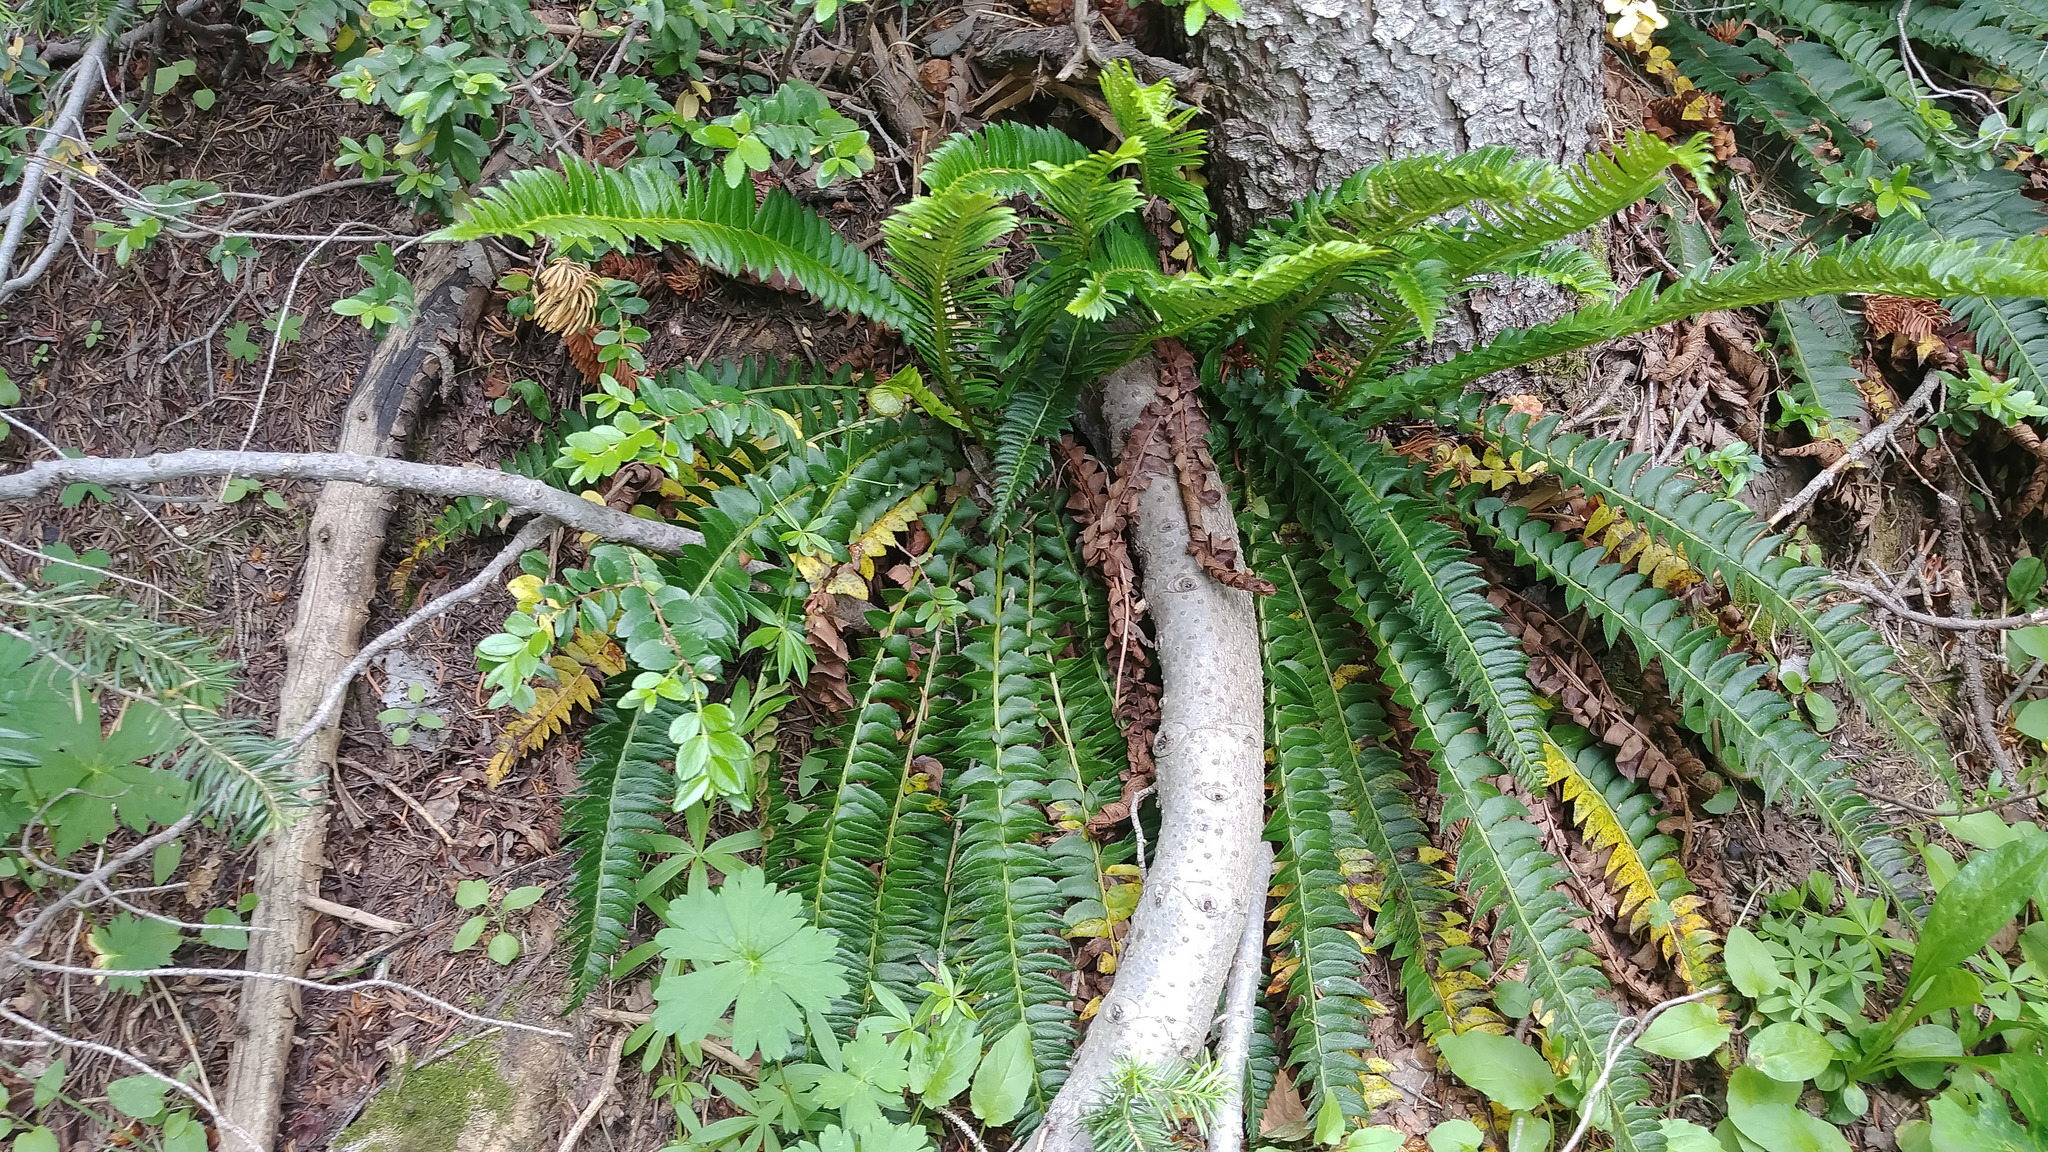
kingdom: Plantae
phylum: Tracheophyta
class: Polypodiopsida
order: Polypodiales
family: Dryopteridaceae
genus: Polystichum
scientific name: Polystichum lonchitis
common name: Holly fern
